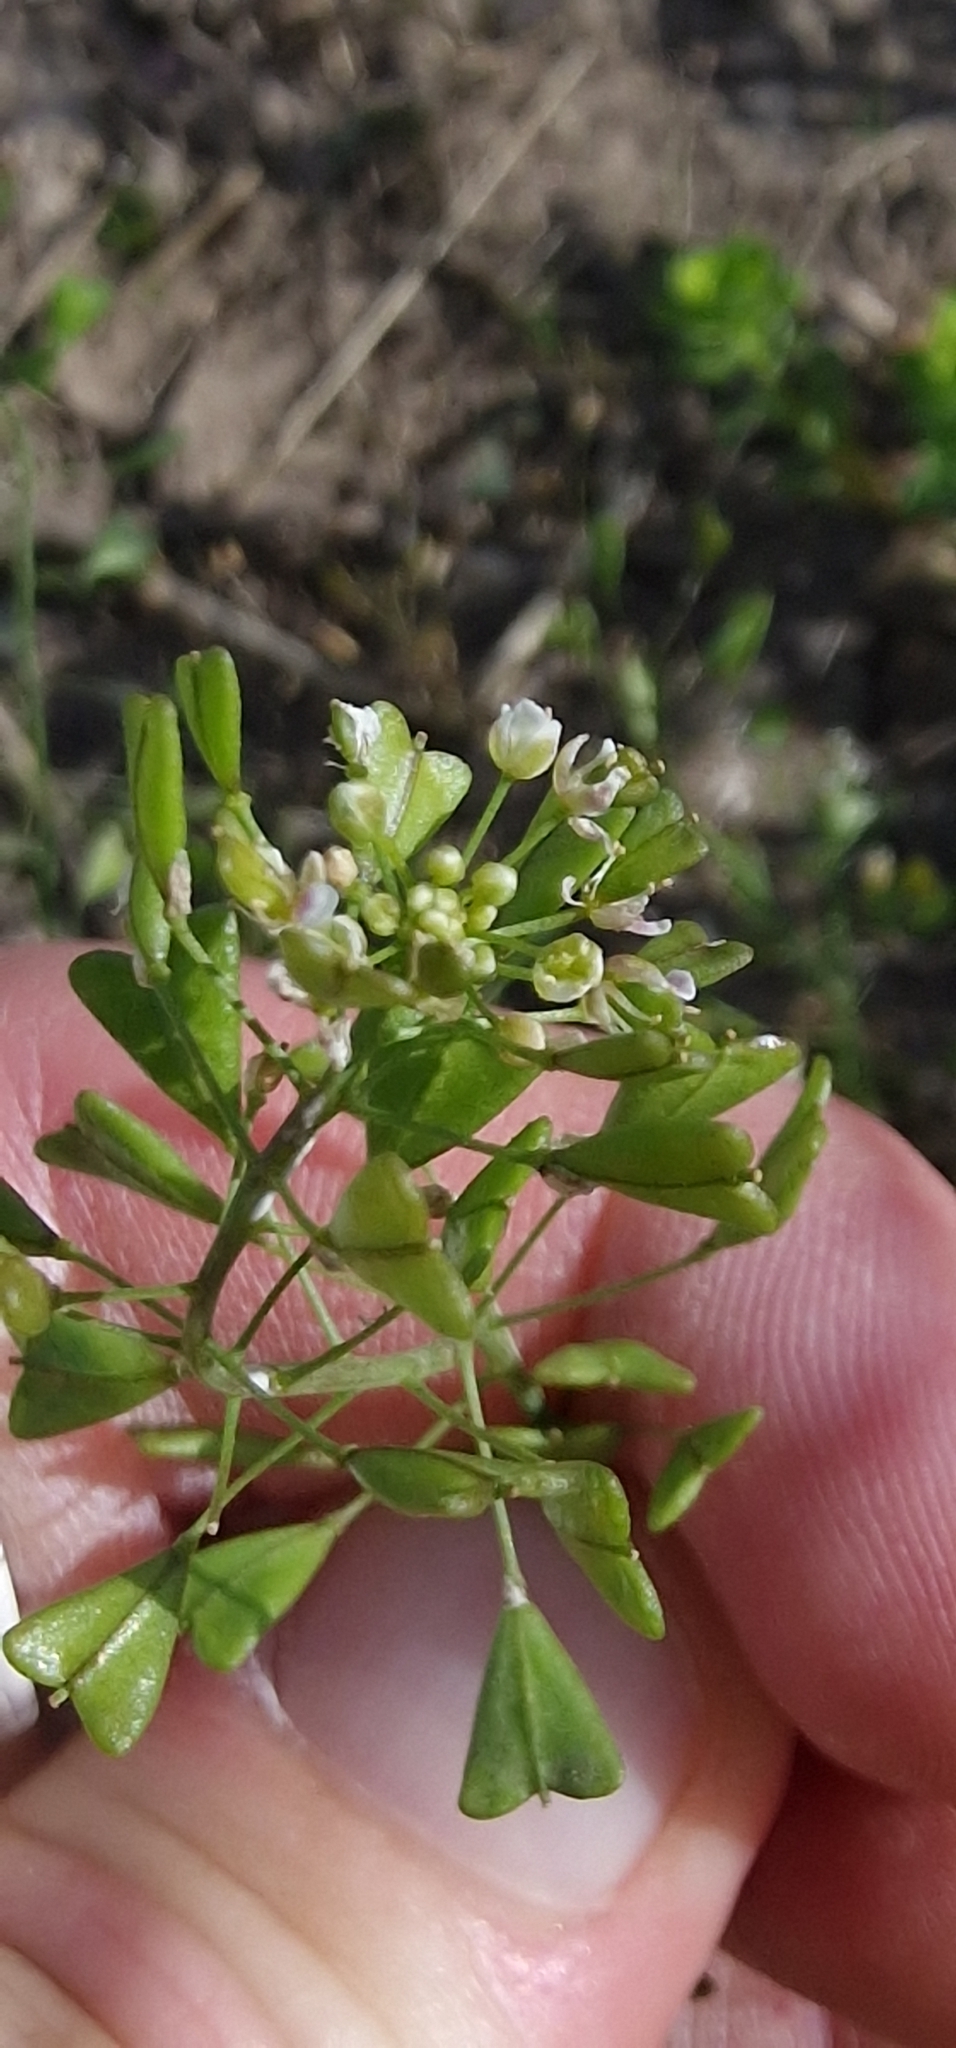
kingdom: Plantae
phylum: Tracheophyta
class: Magnoliopsida
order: Brassicales
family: Brassicaceae
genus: Capsella
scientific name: Capsella bursa-pastoris
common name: Shepherd's purse
